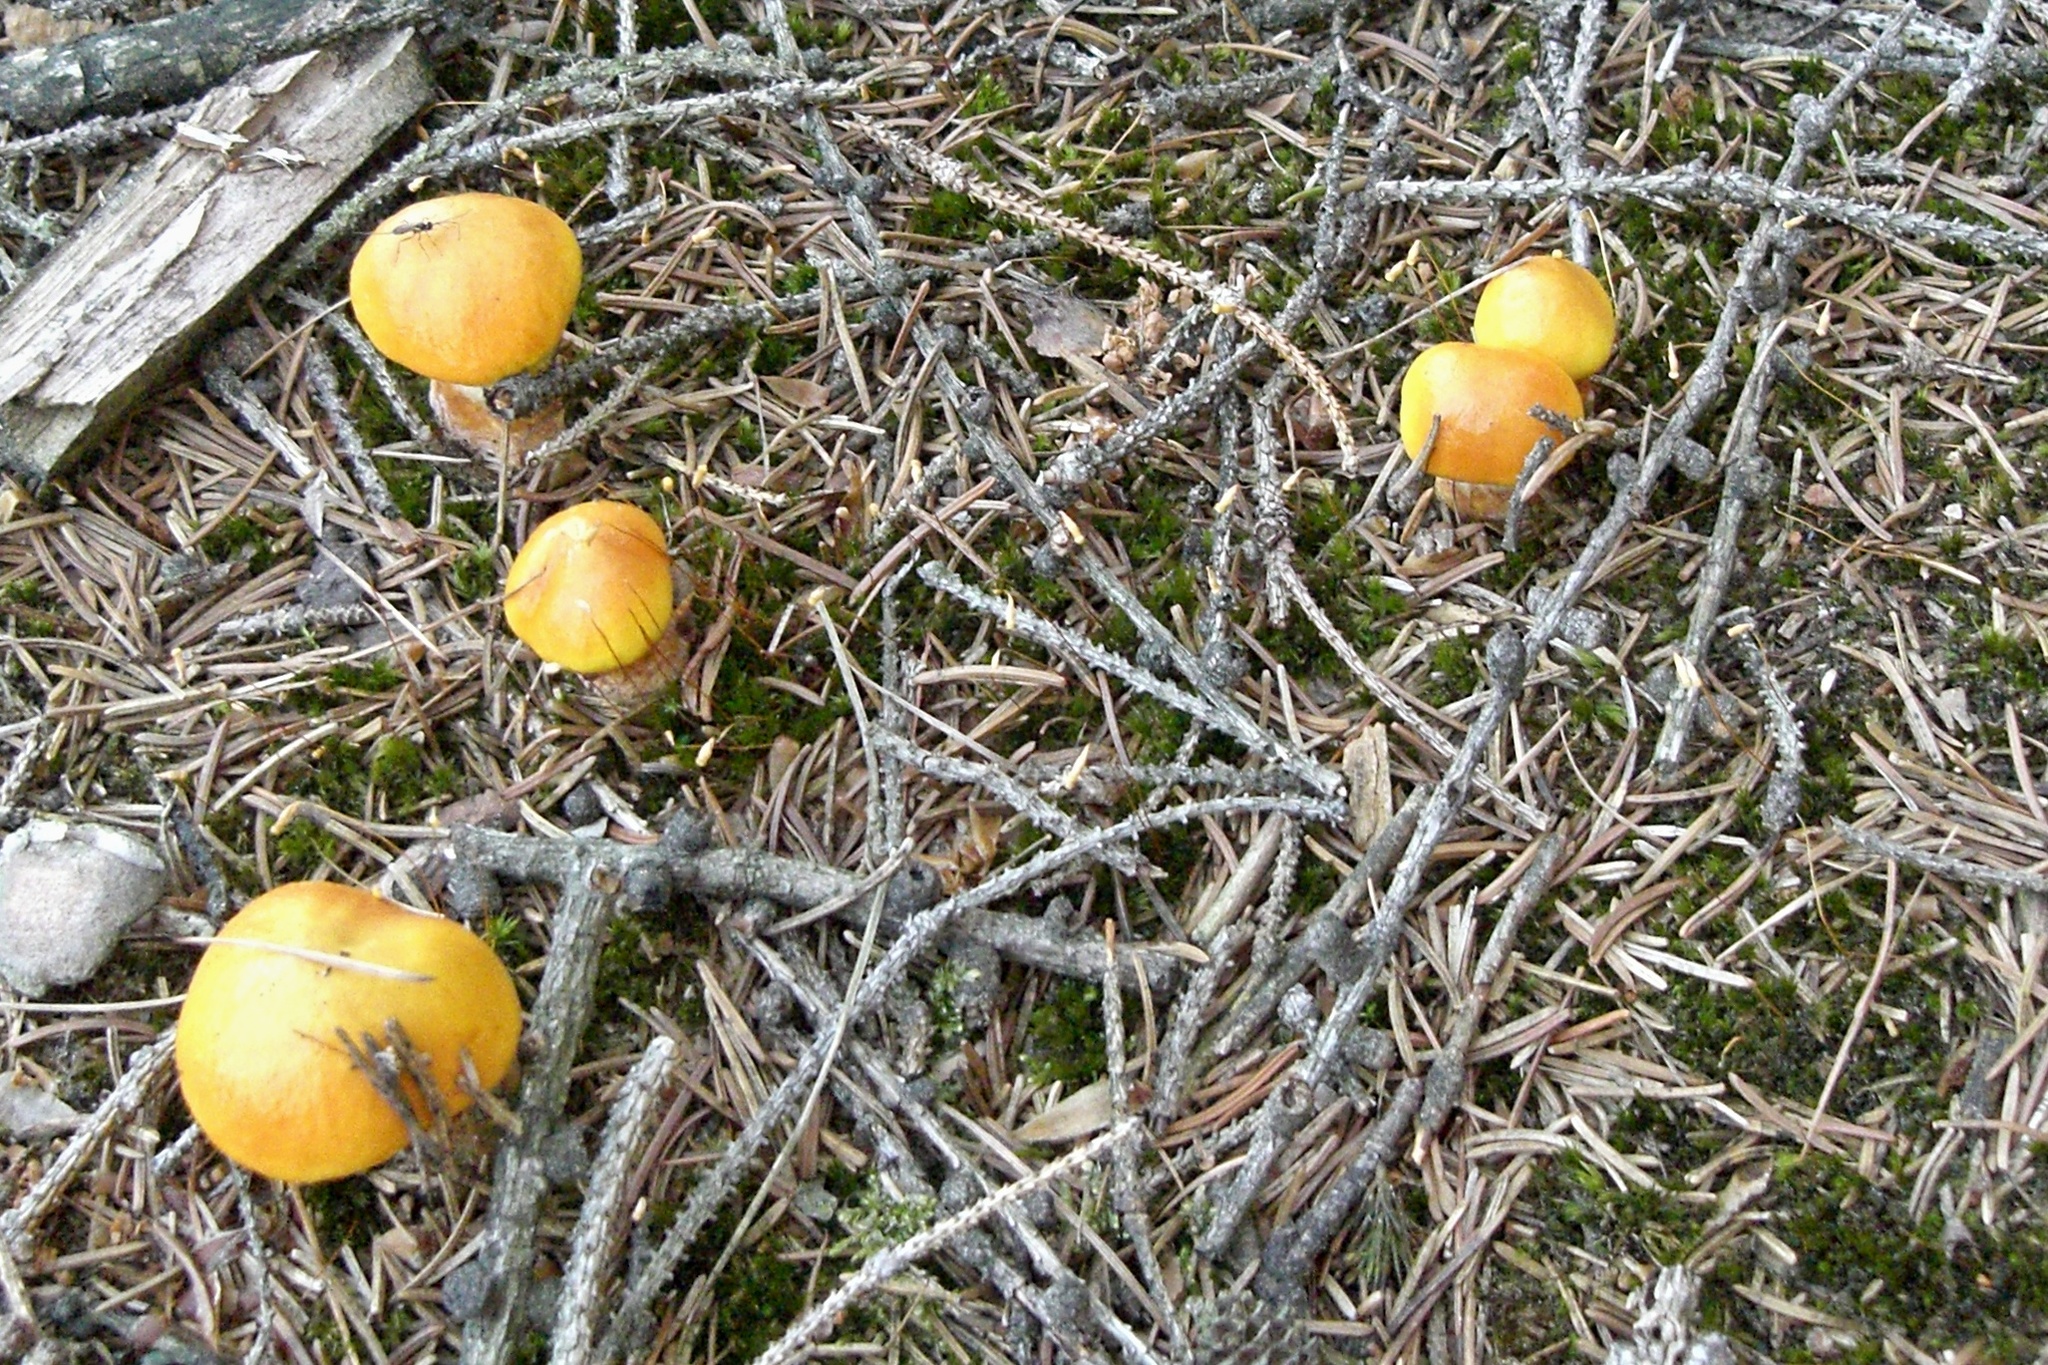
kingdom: Fungi
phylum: Basidiomycota
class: Agaricomycetes
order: Boletales
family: Suillaceae
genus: Suillus
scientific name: Suillus grevillei
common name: Larch bolete
